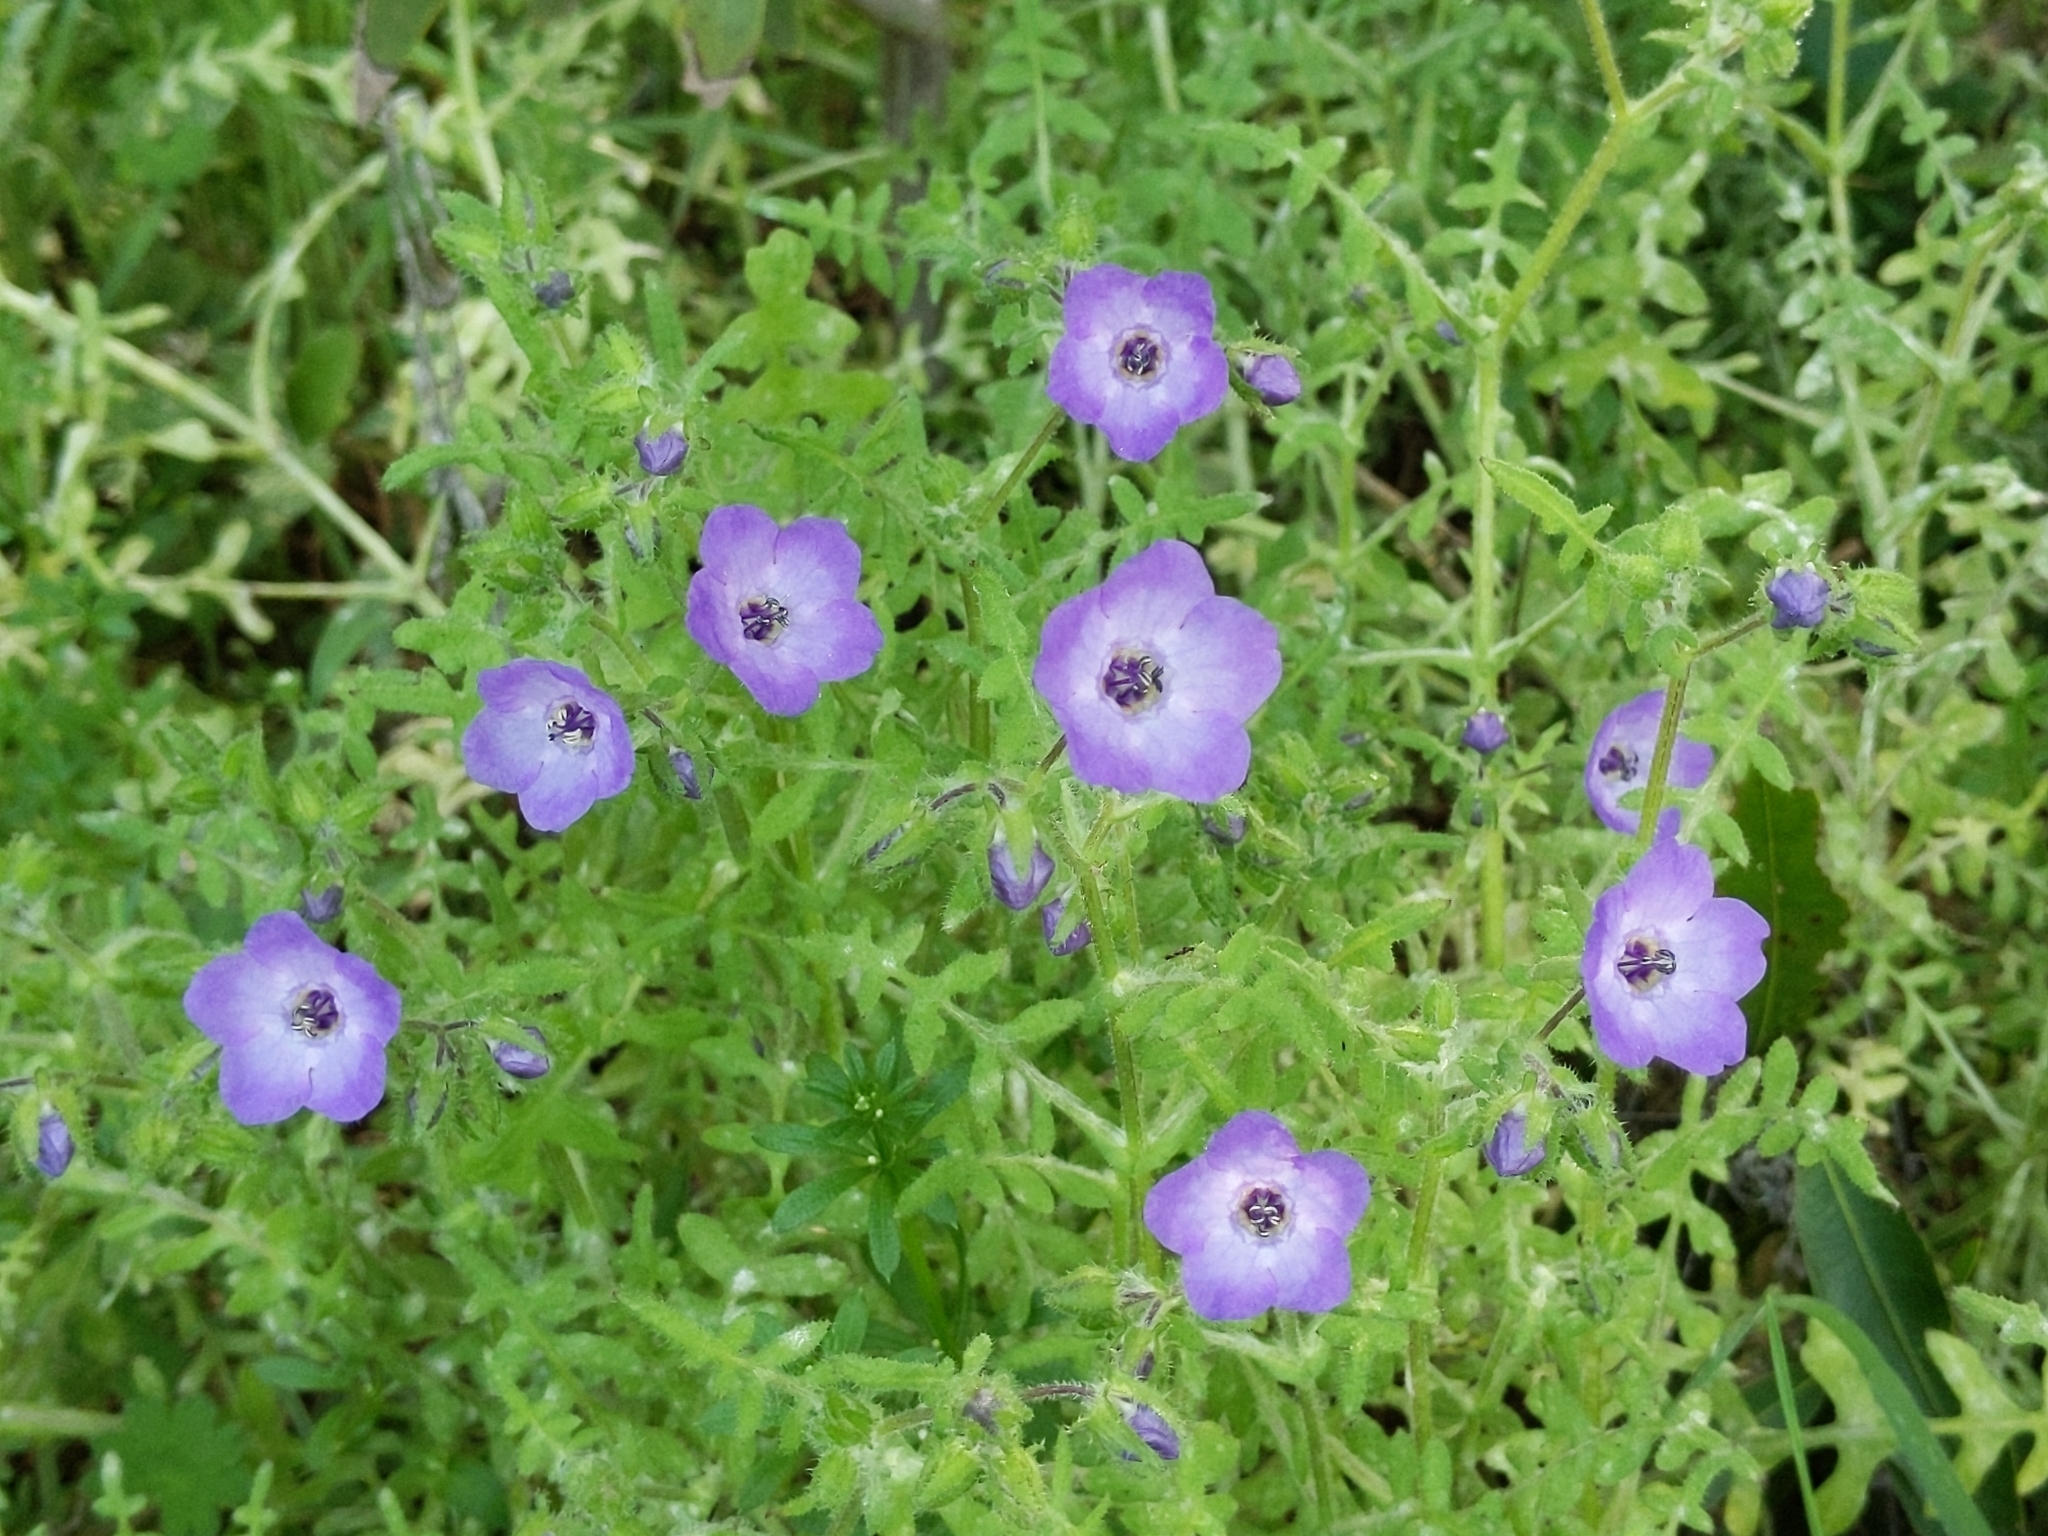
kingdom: Plantae
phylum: Tracheophyta
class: Magnoliopsida
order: Boraginales
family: Hydrophyllaceae
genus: Pholistoma
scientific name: Pholistoma auritum
